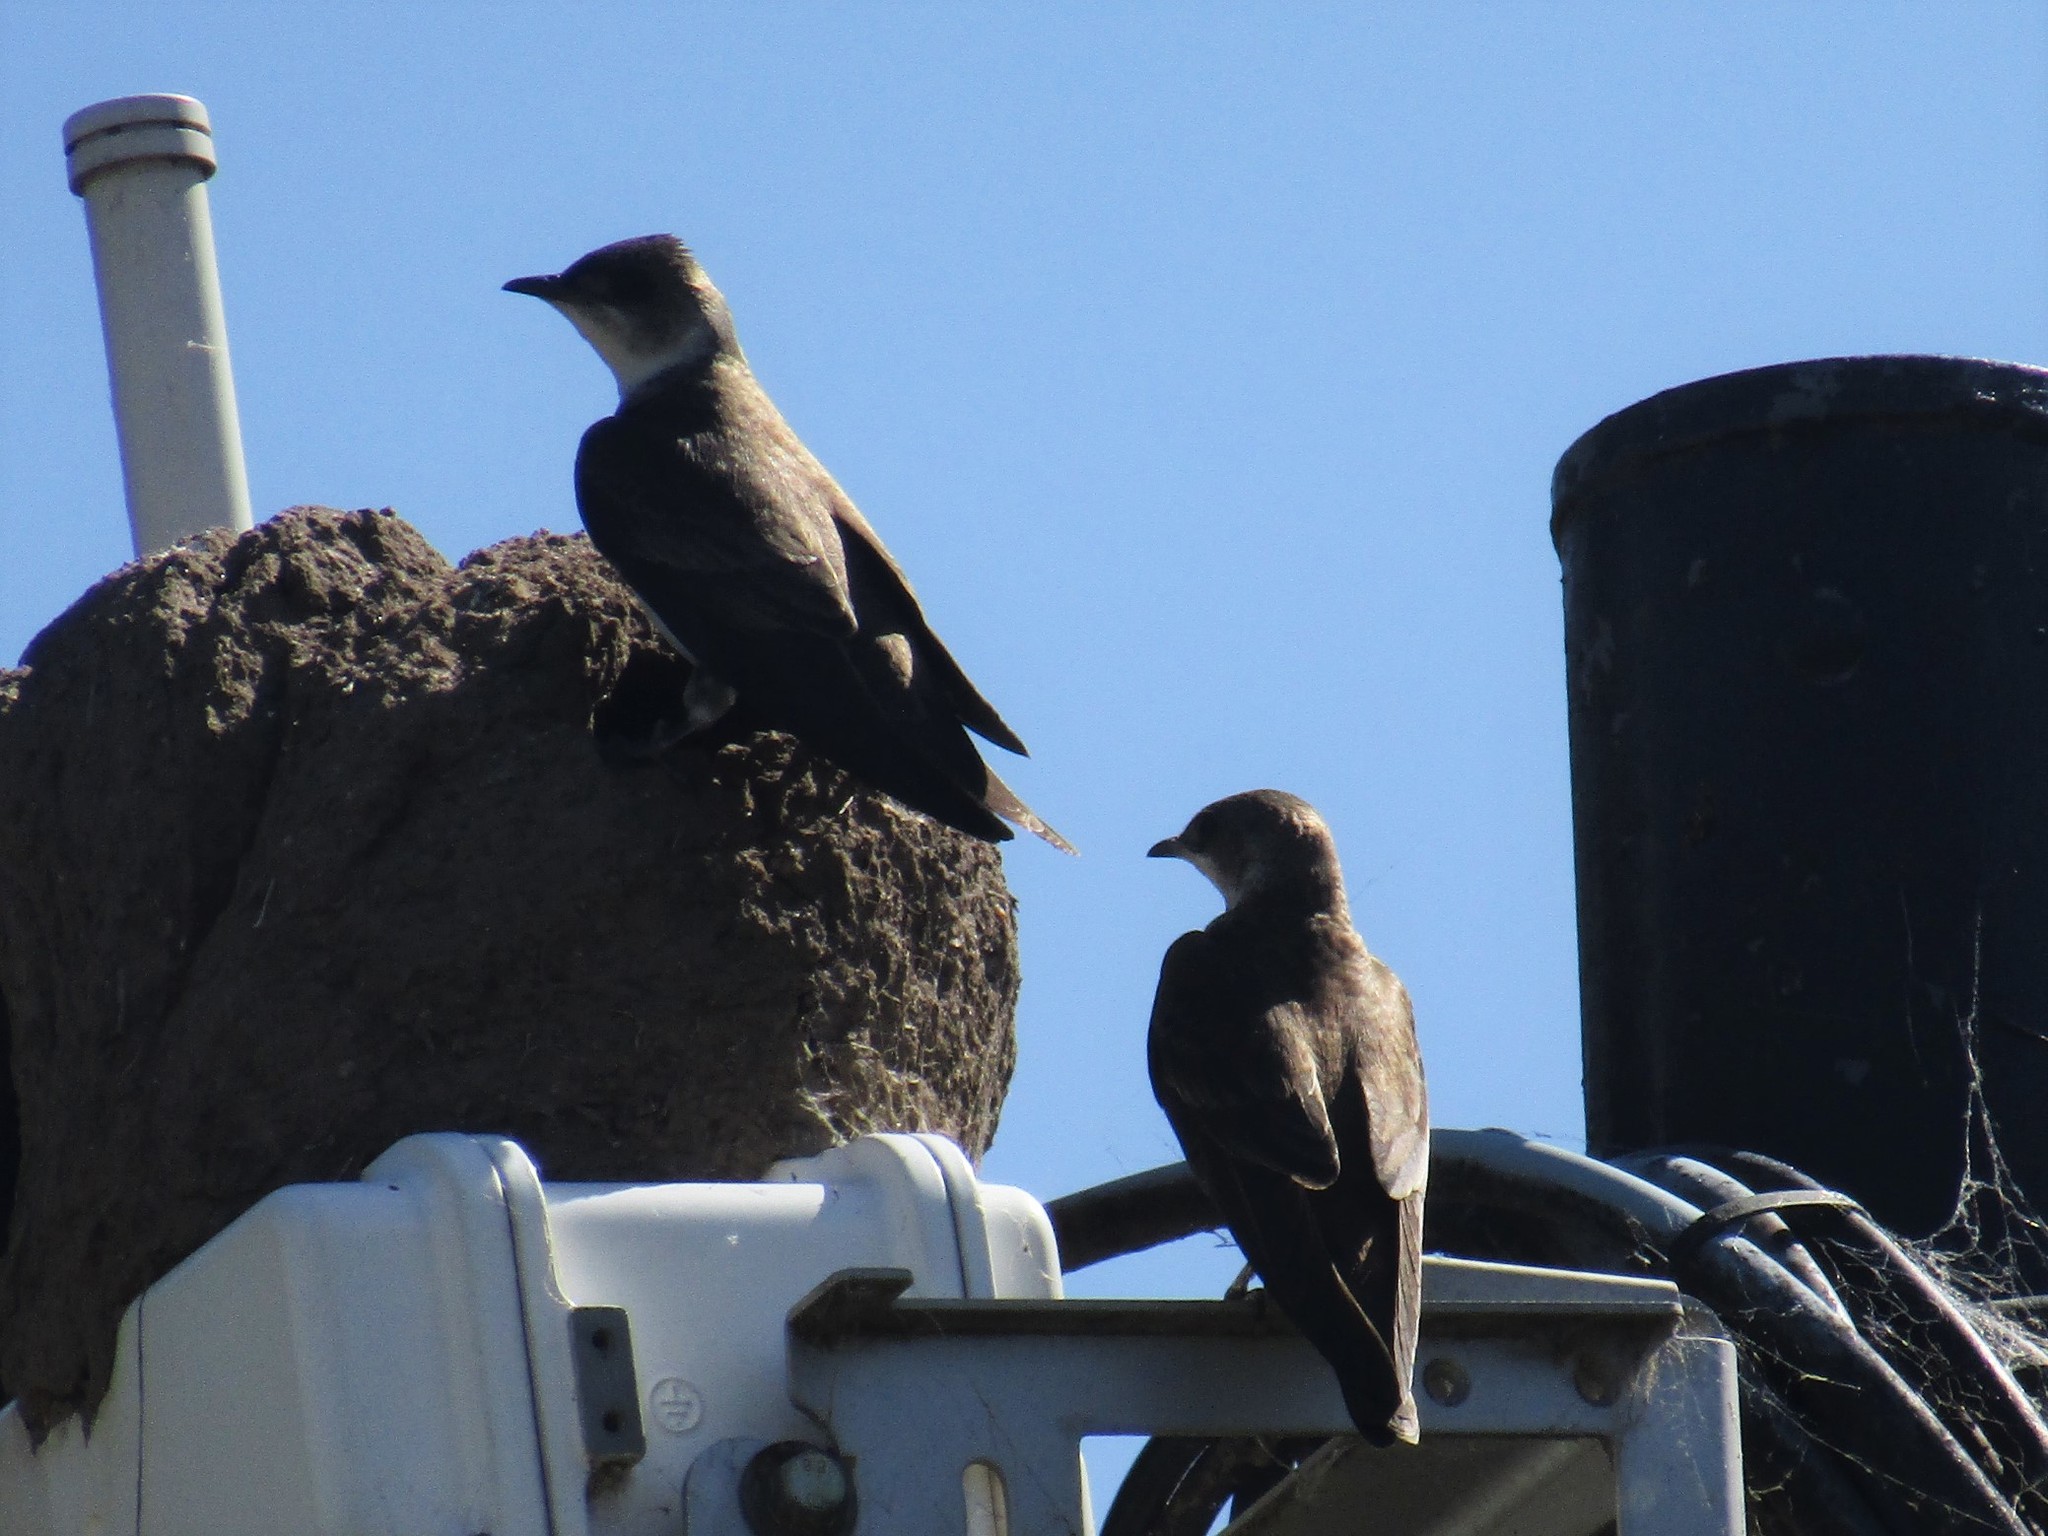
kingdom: Animalia
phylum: Chordata
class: Aves
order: Passeriformes
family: Hirundinidae
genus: Progne
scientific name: Progne tapera
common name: Brown-chested martin
